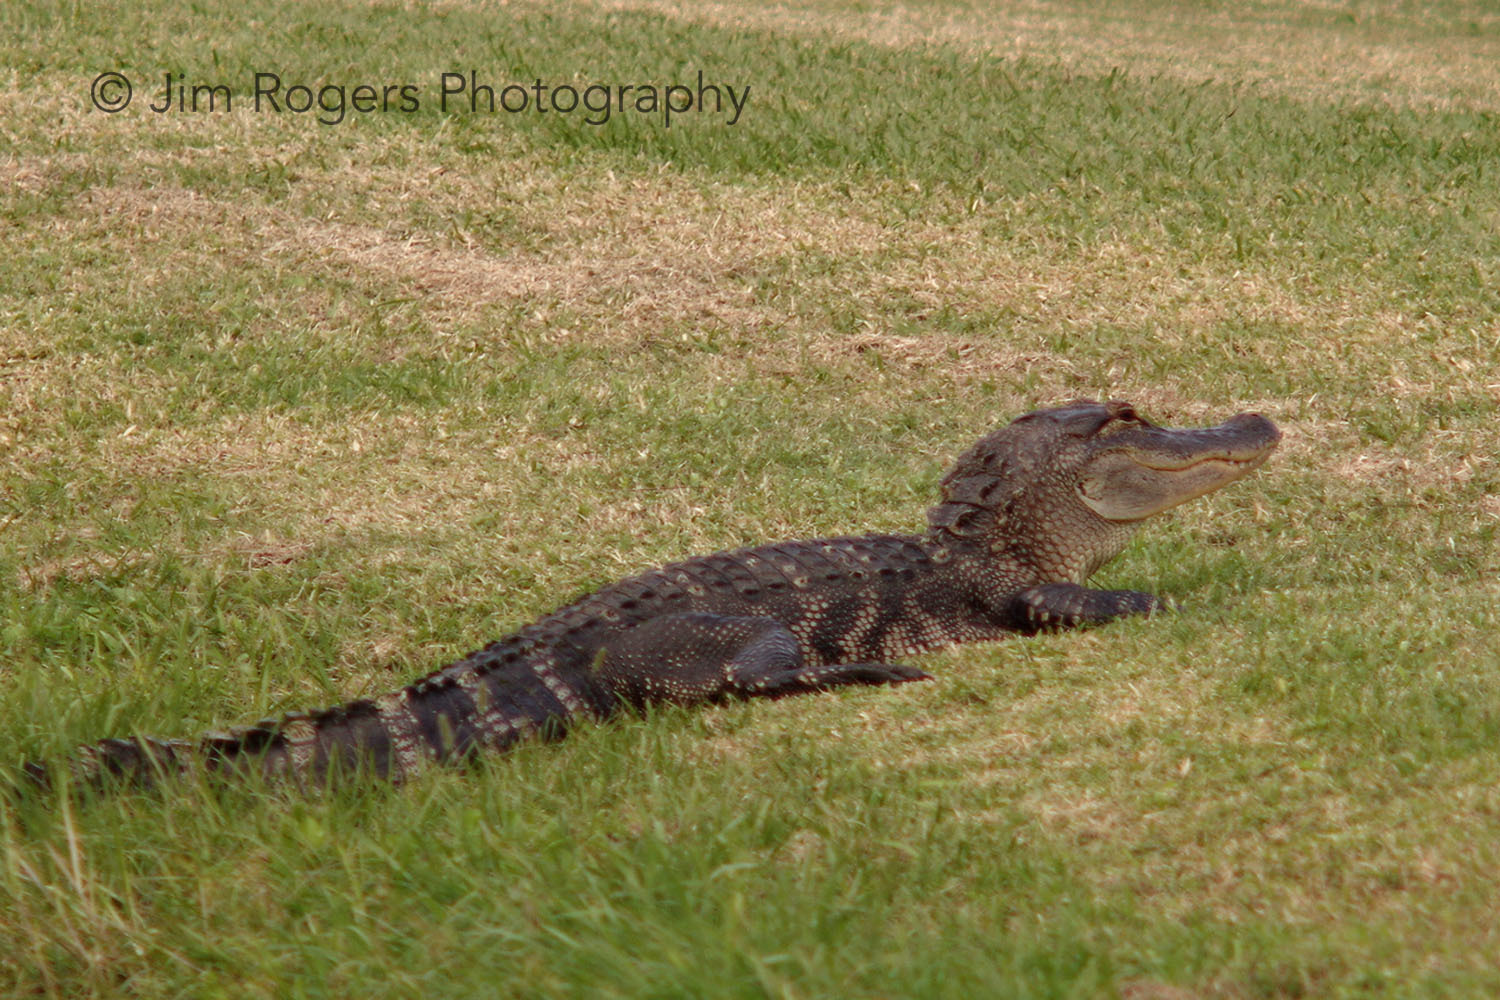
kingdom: Animalia
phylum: Chordata
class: Crocodylia
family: Alligatoridae
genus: Alligator
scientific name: Alligator mississippiensis
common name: American alligator
